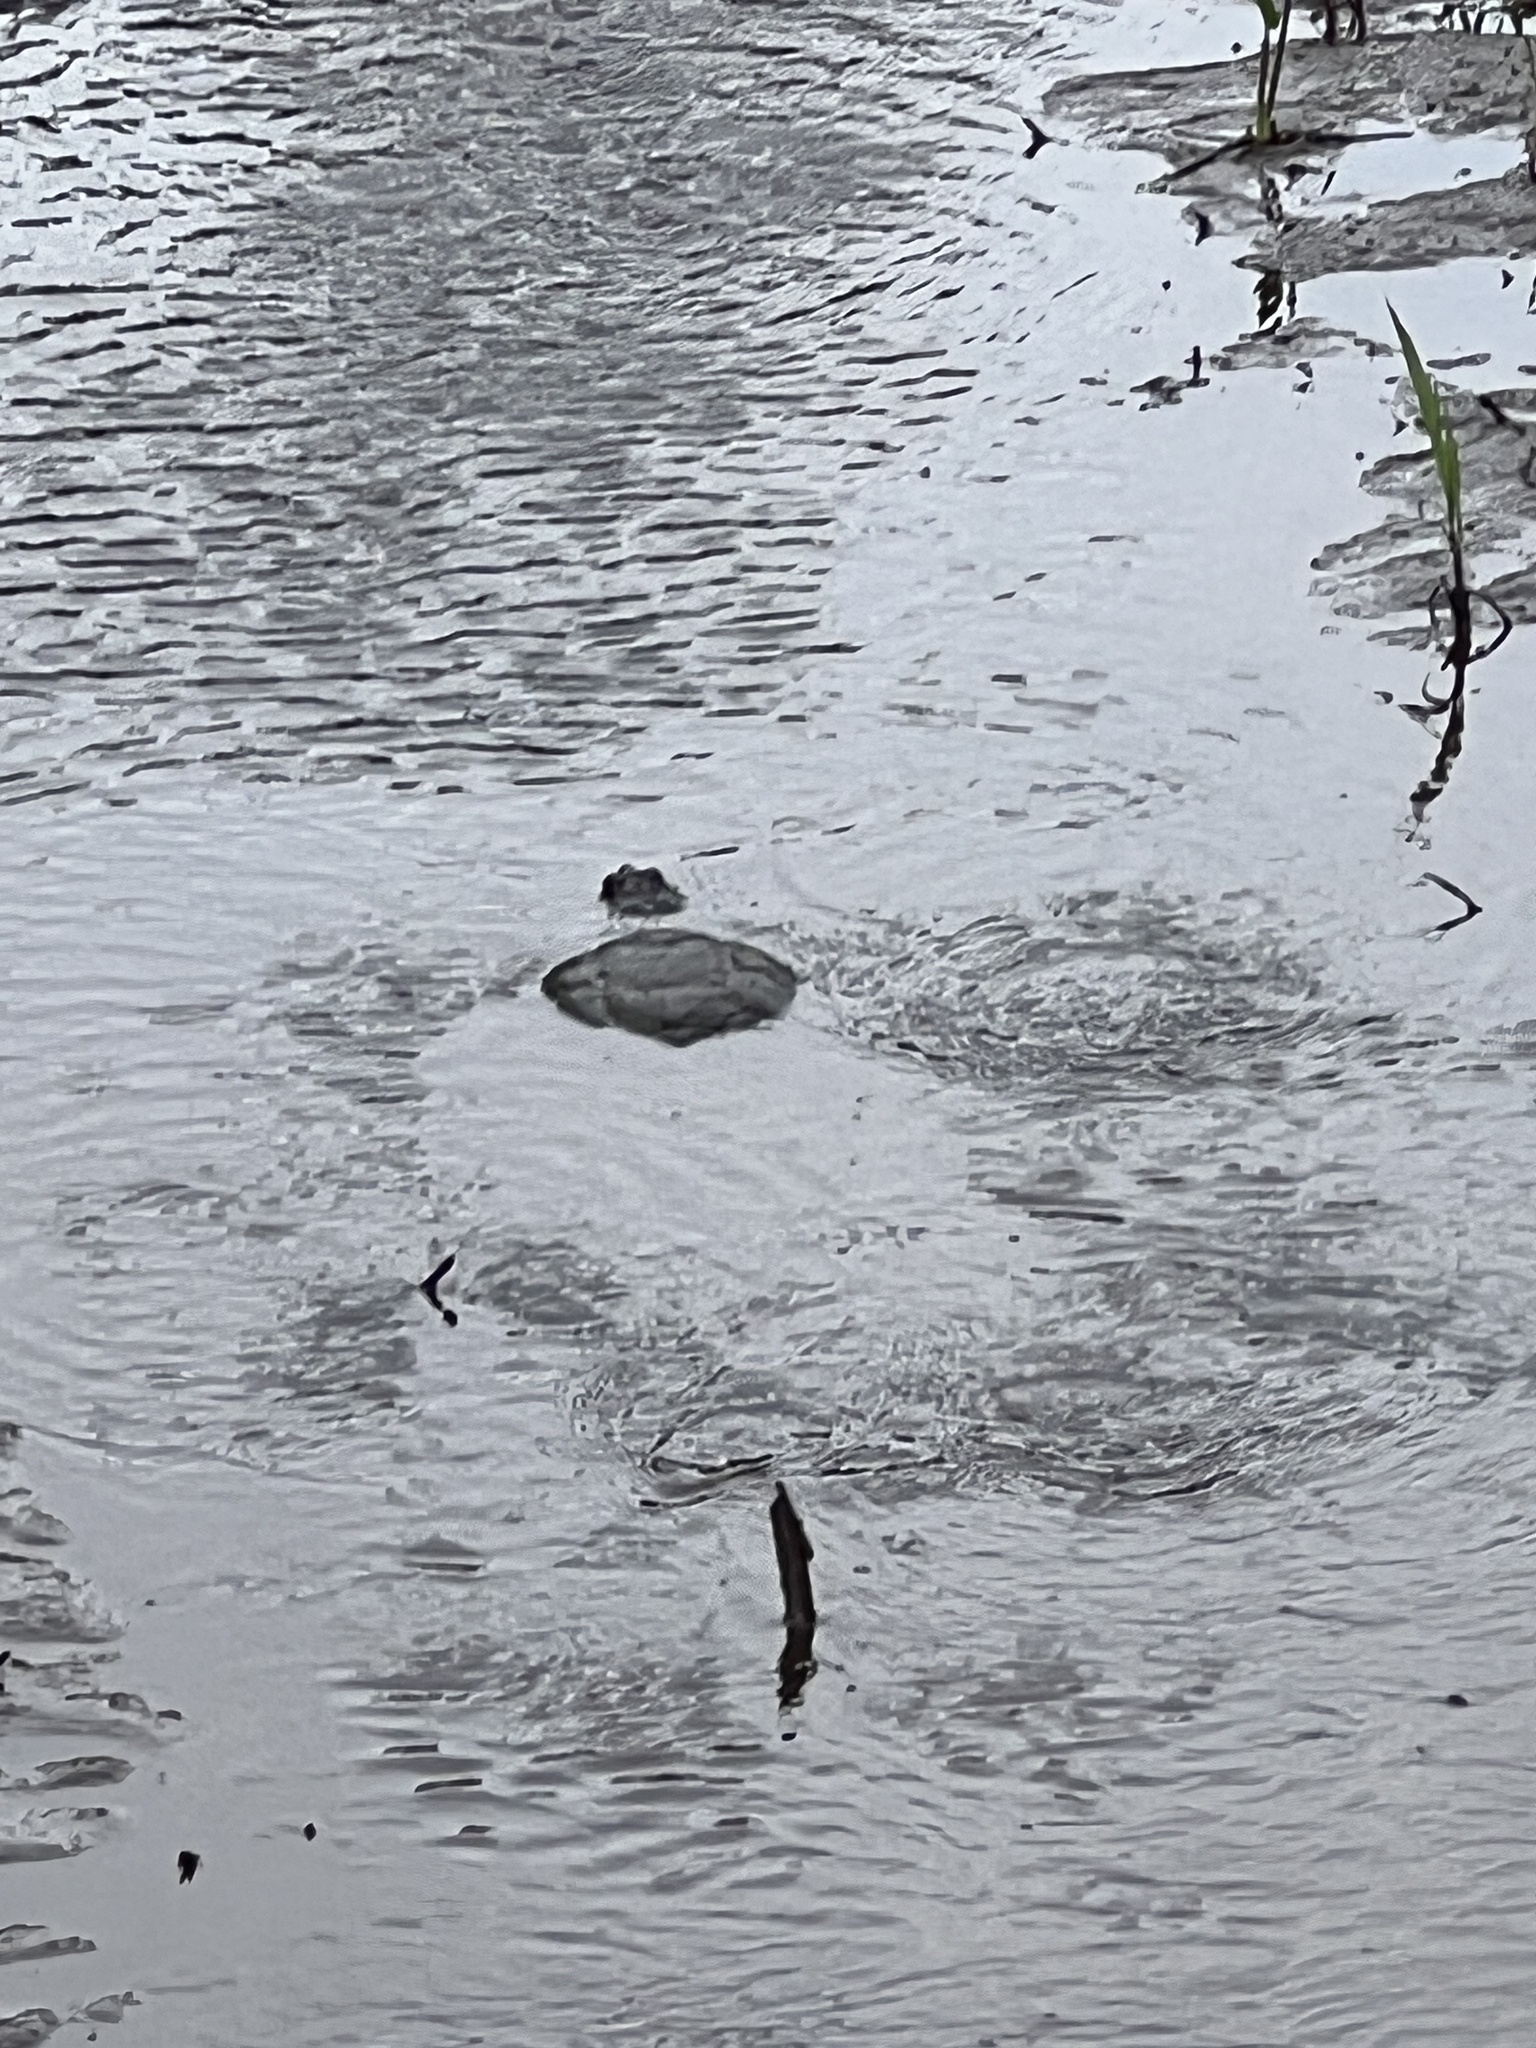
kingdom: Animalia
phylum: Chordata
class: Testudines
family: Chelydridae
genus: Chelydra
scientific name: Chelydra serpentina
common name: Common snapping turtle
